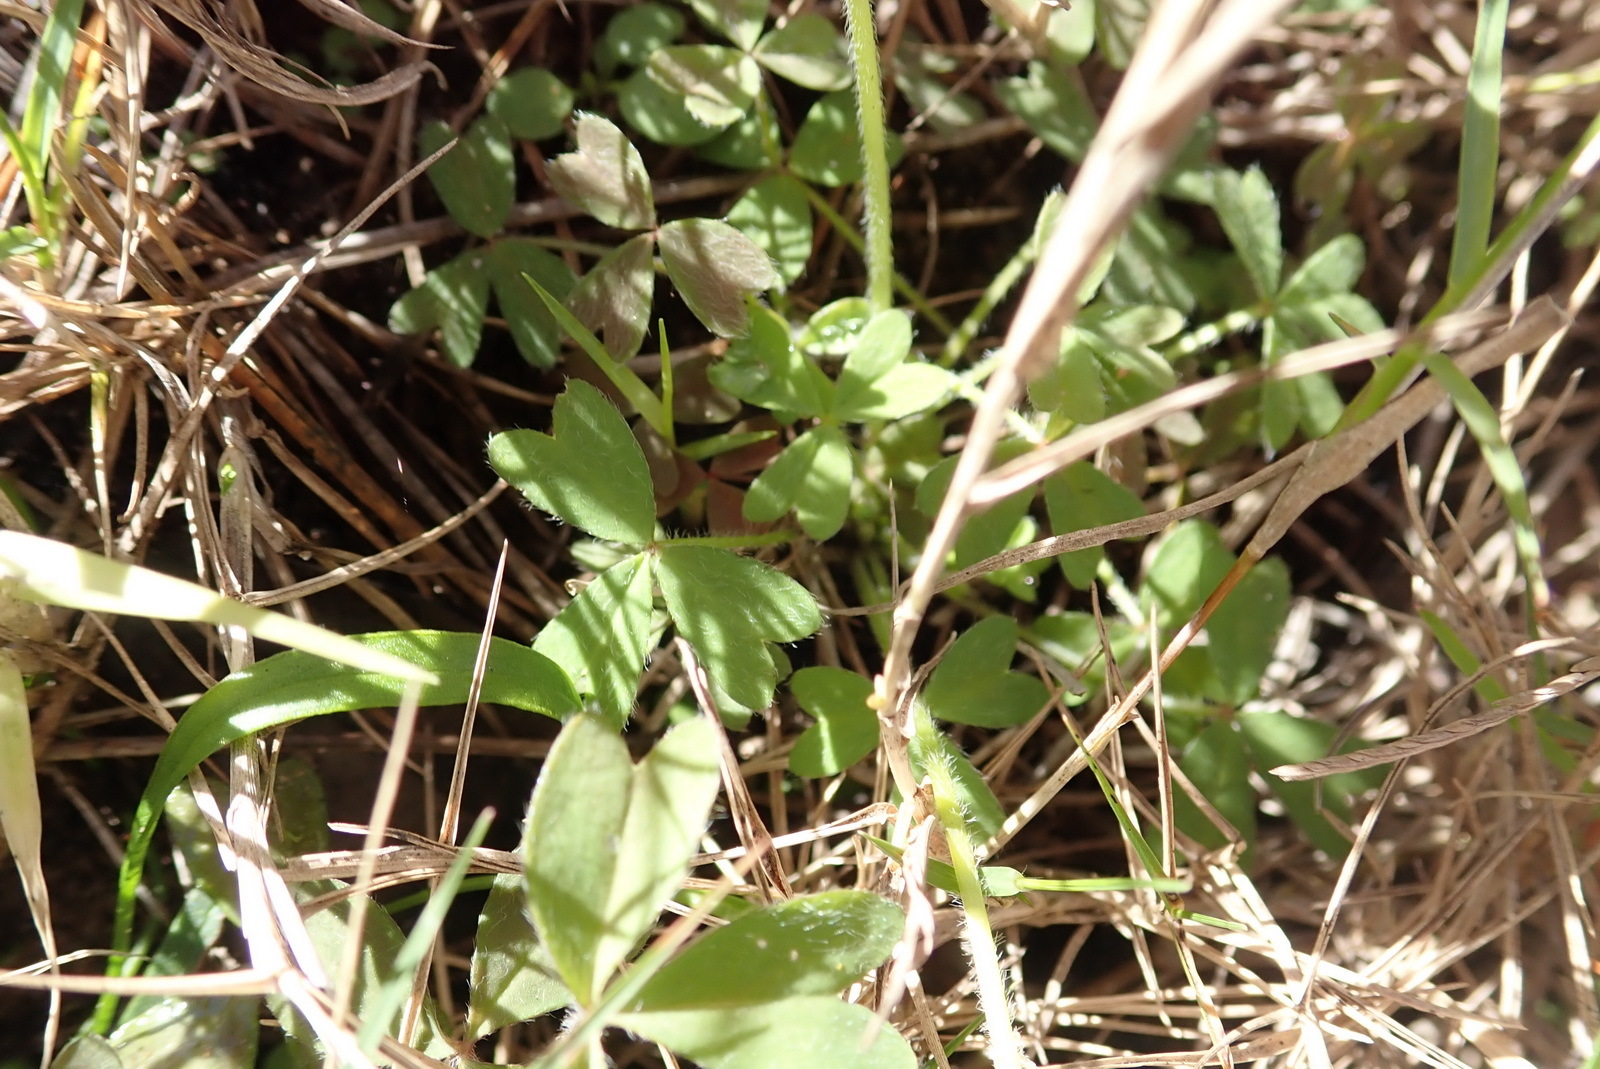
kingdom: Plantae
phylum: Tracheophyta
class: Magnoliopsida
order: Oxalidales
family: Oxalidaceae
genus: Oxalis
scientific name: Oxalis obtusa
